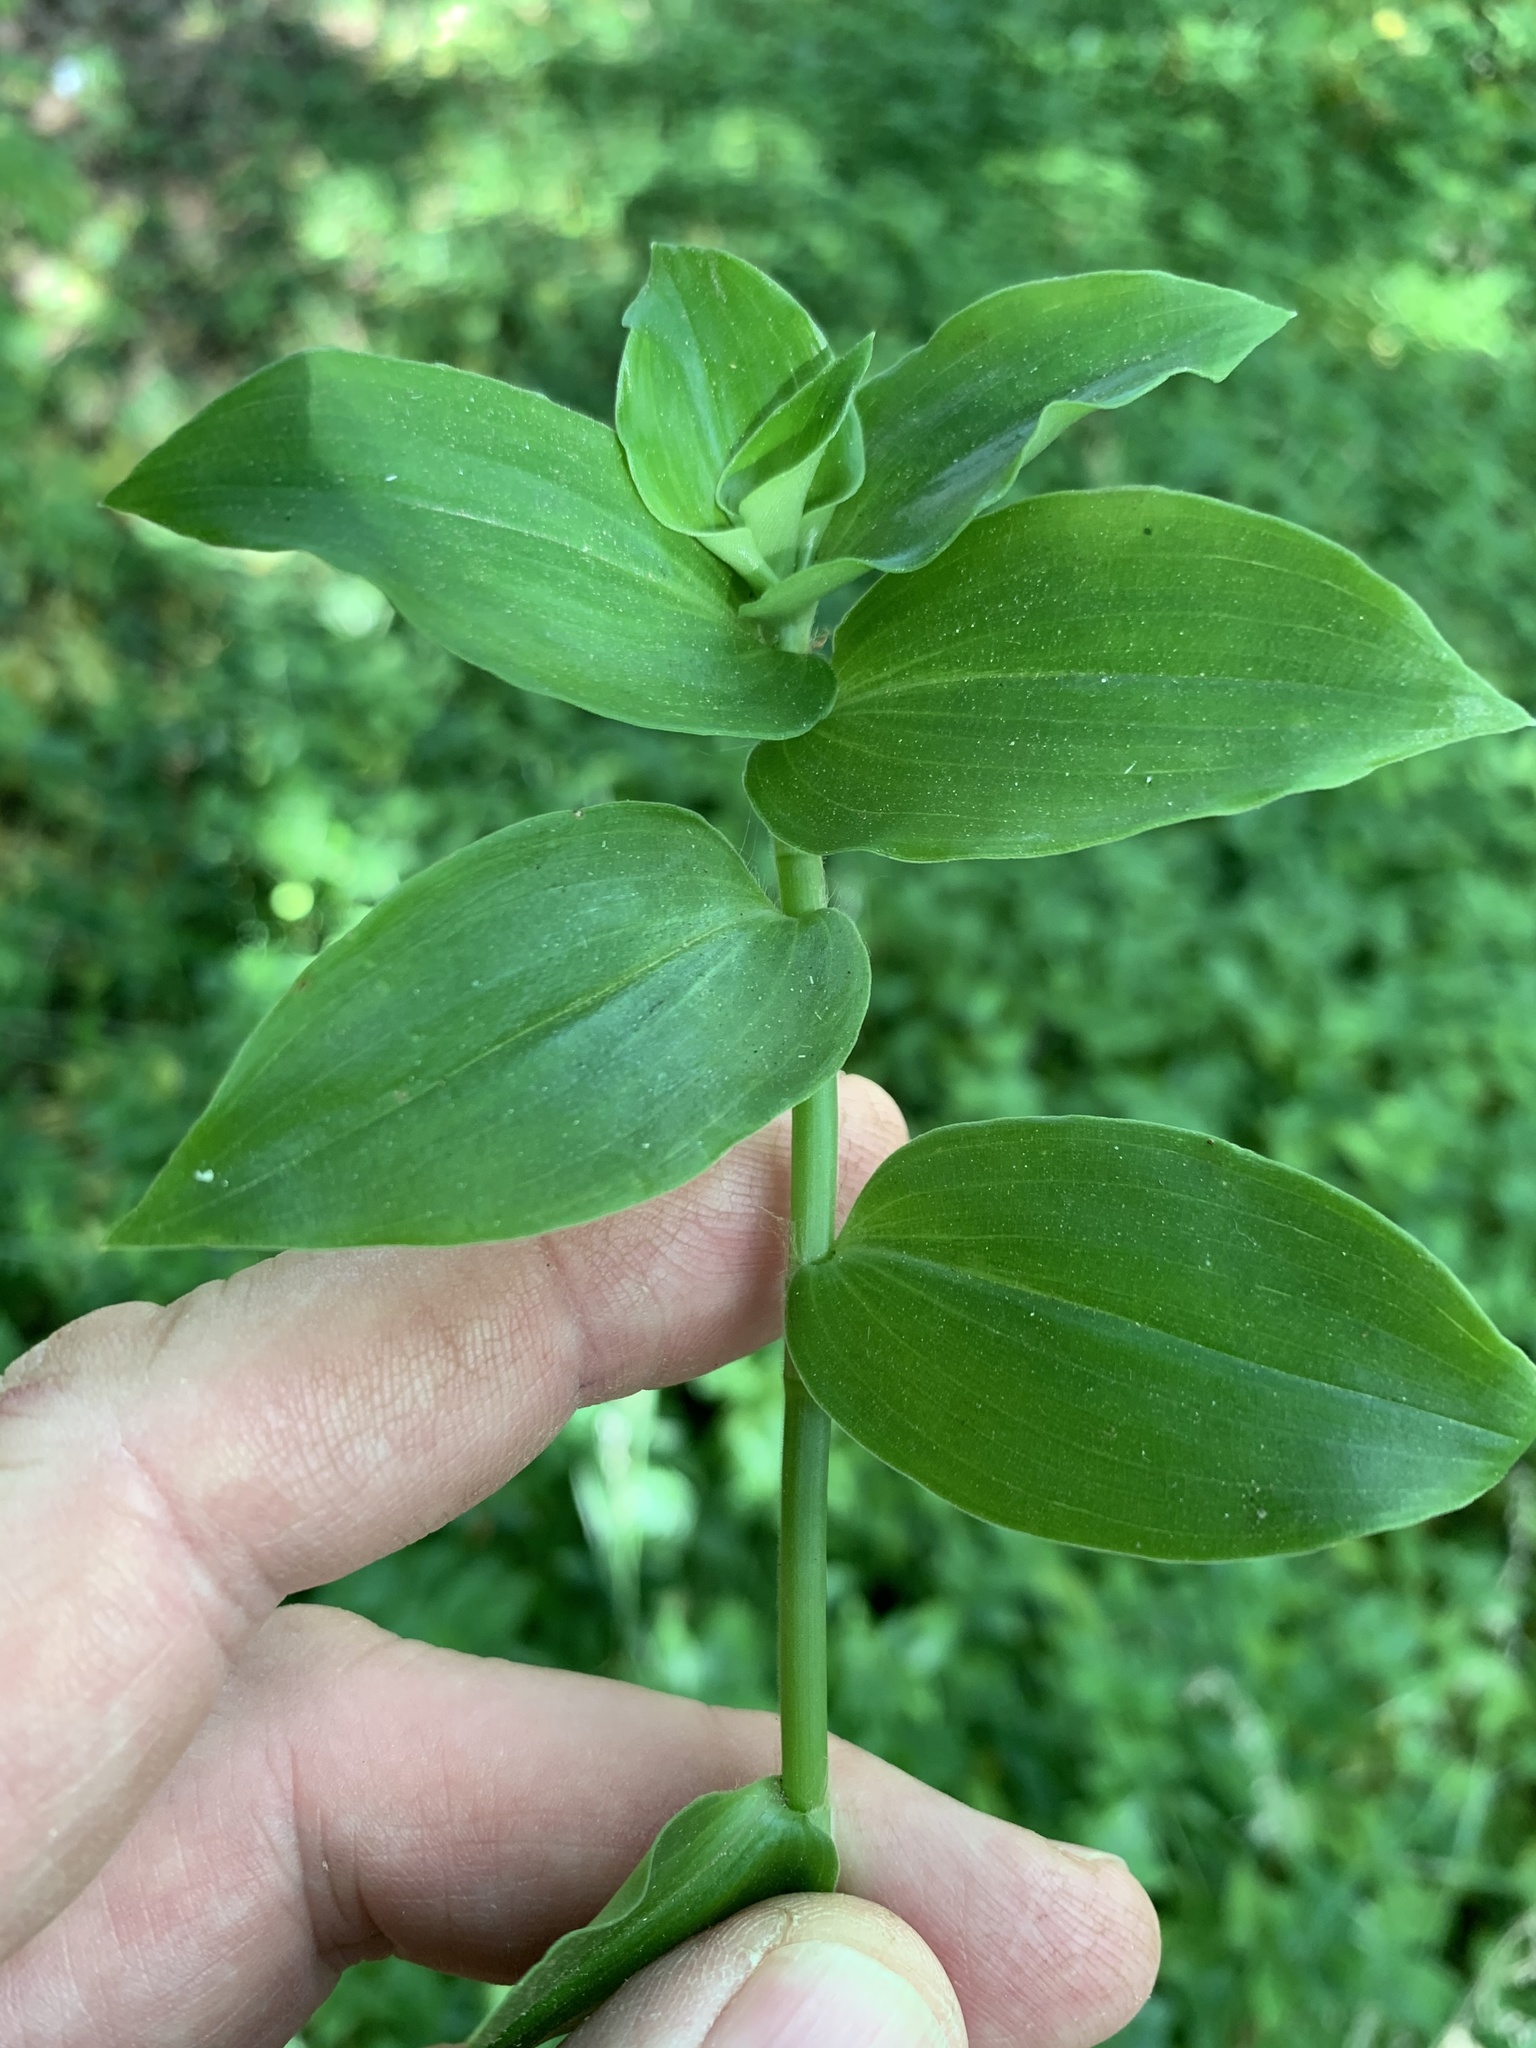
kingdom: Plantae
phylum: Tracheophyta
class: Liliopsida
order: Commelinales
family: Commelinaceae
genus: Tradescantia
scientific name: Tradescantia fluminensis
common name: Wandering-jew
